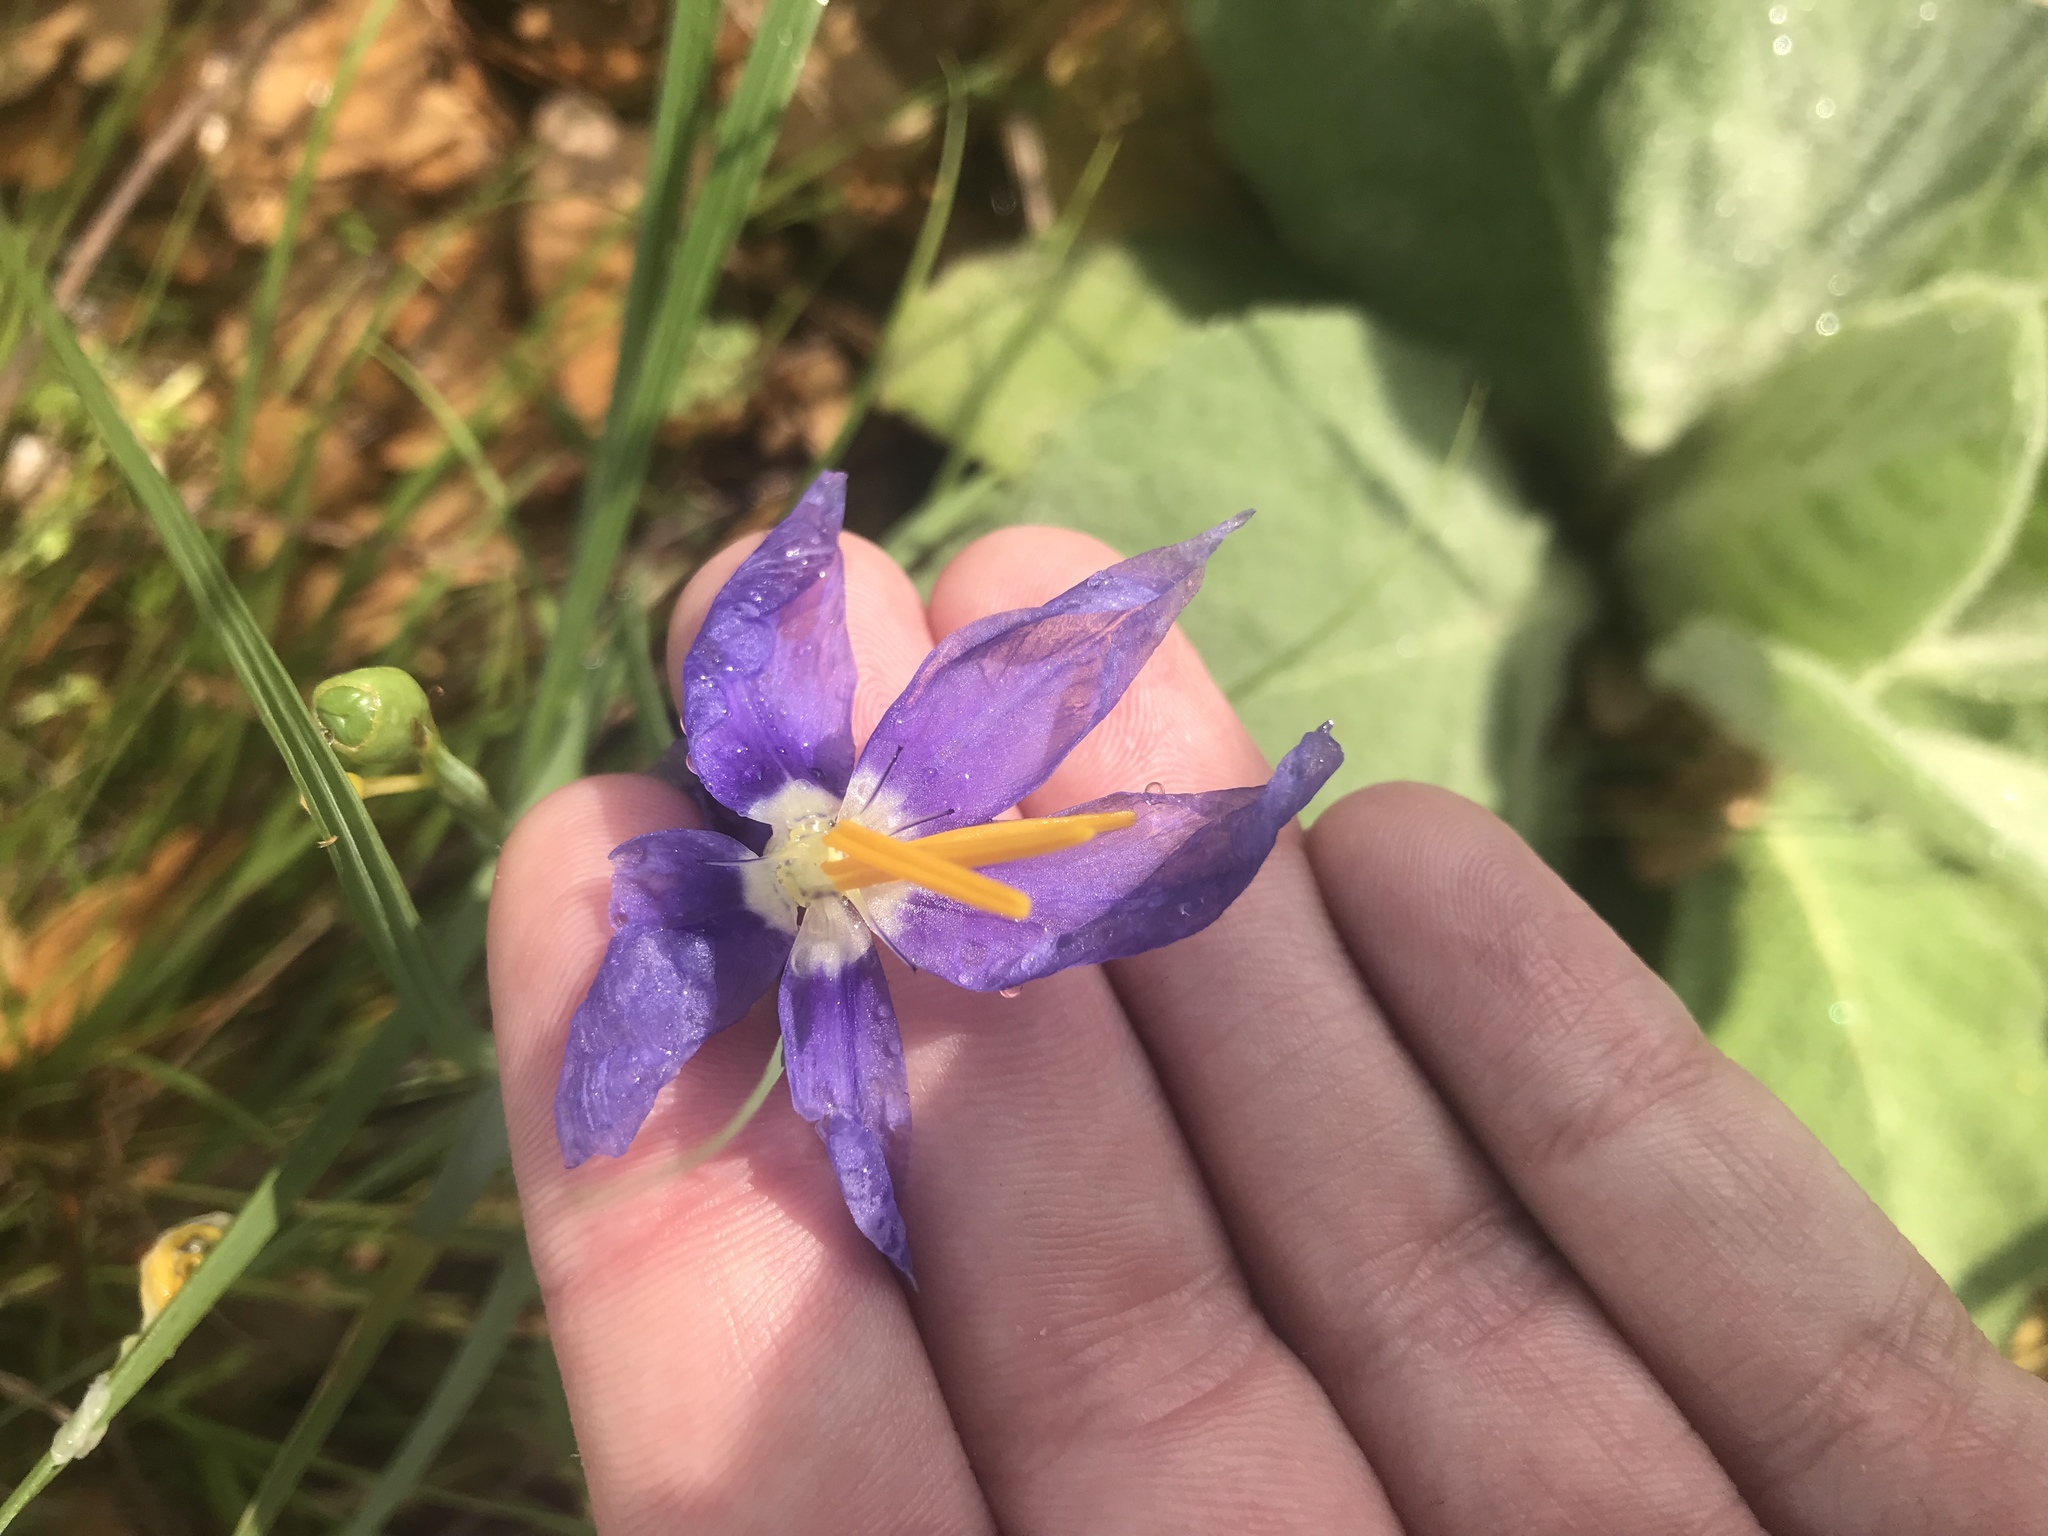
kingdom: Plantae
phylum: Tracheophyta
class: Liliopsida
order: Asparagales
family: Iridaceae
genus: Nemastylis
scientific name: Nemastylis geminiflora
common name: Prairie celestial
